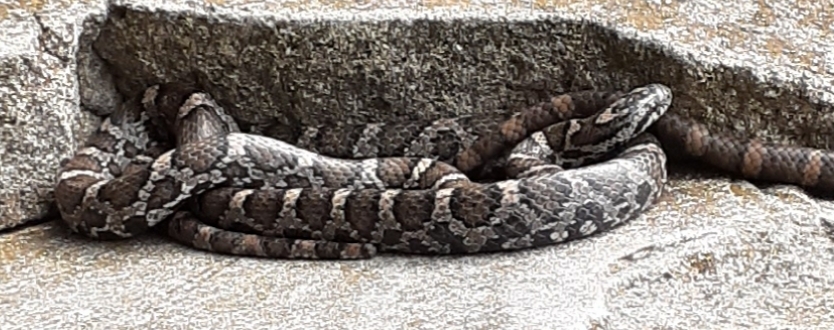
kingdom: Animalia
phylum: Chordata
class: Squamata
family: Colubridae
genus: Lampropeltis
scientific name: Lampropeltis triangulum
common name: Eastern milksnake
